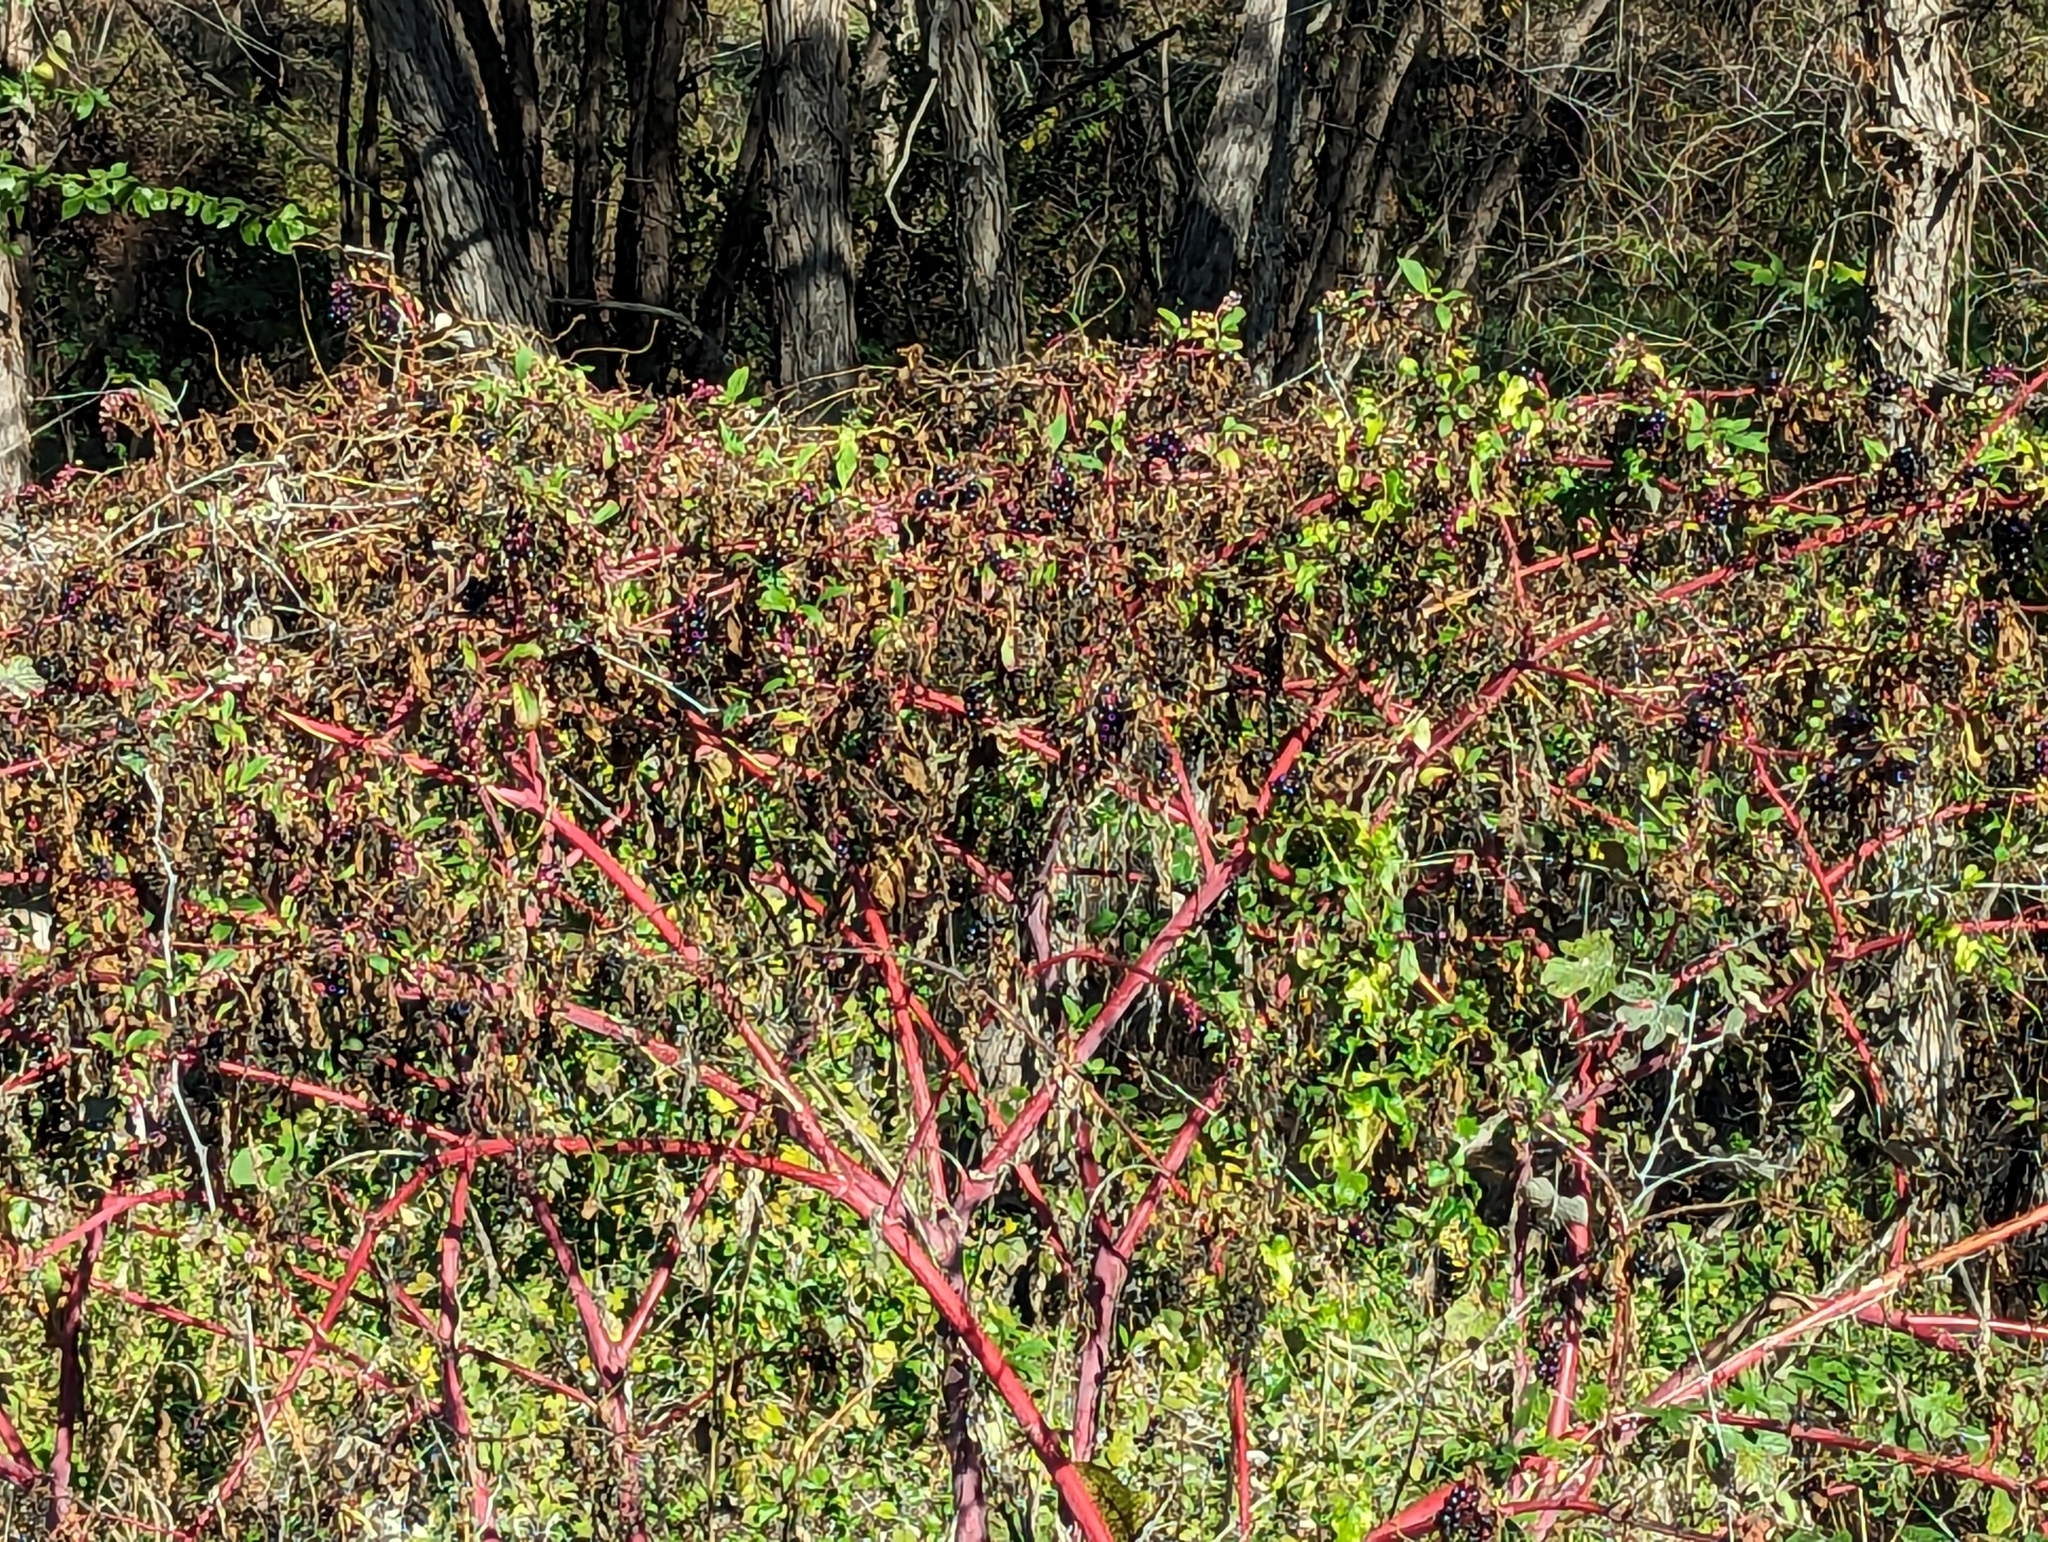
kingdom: Plantae
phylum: Tracheophyta
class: Magnoliopsida
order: Caryophyllales
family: Phytolaccaceae
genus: Phytolacca
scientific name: Phytolacca americana
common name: American pokeweed
